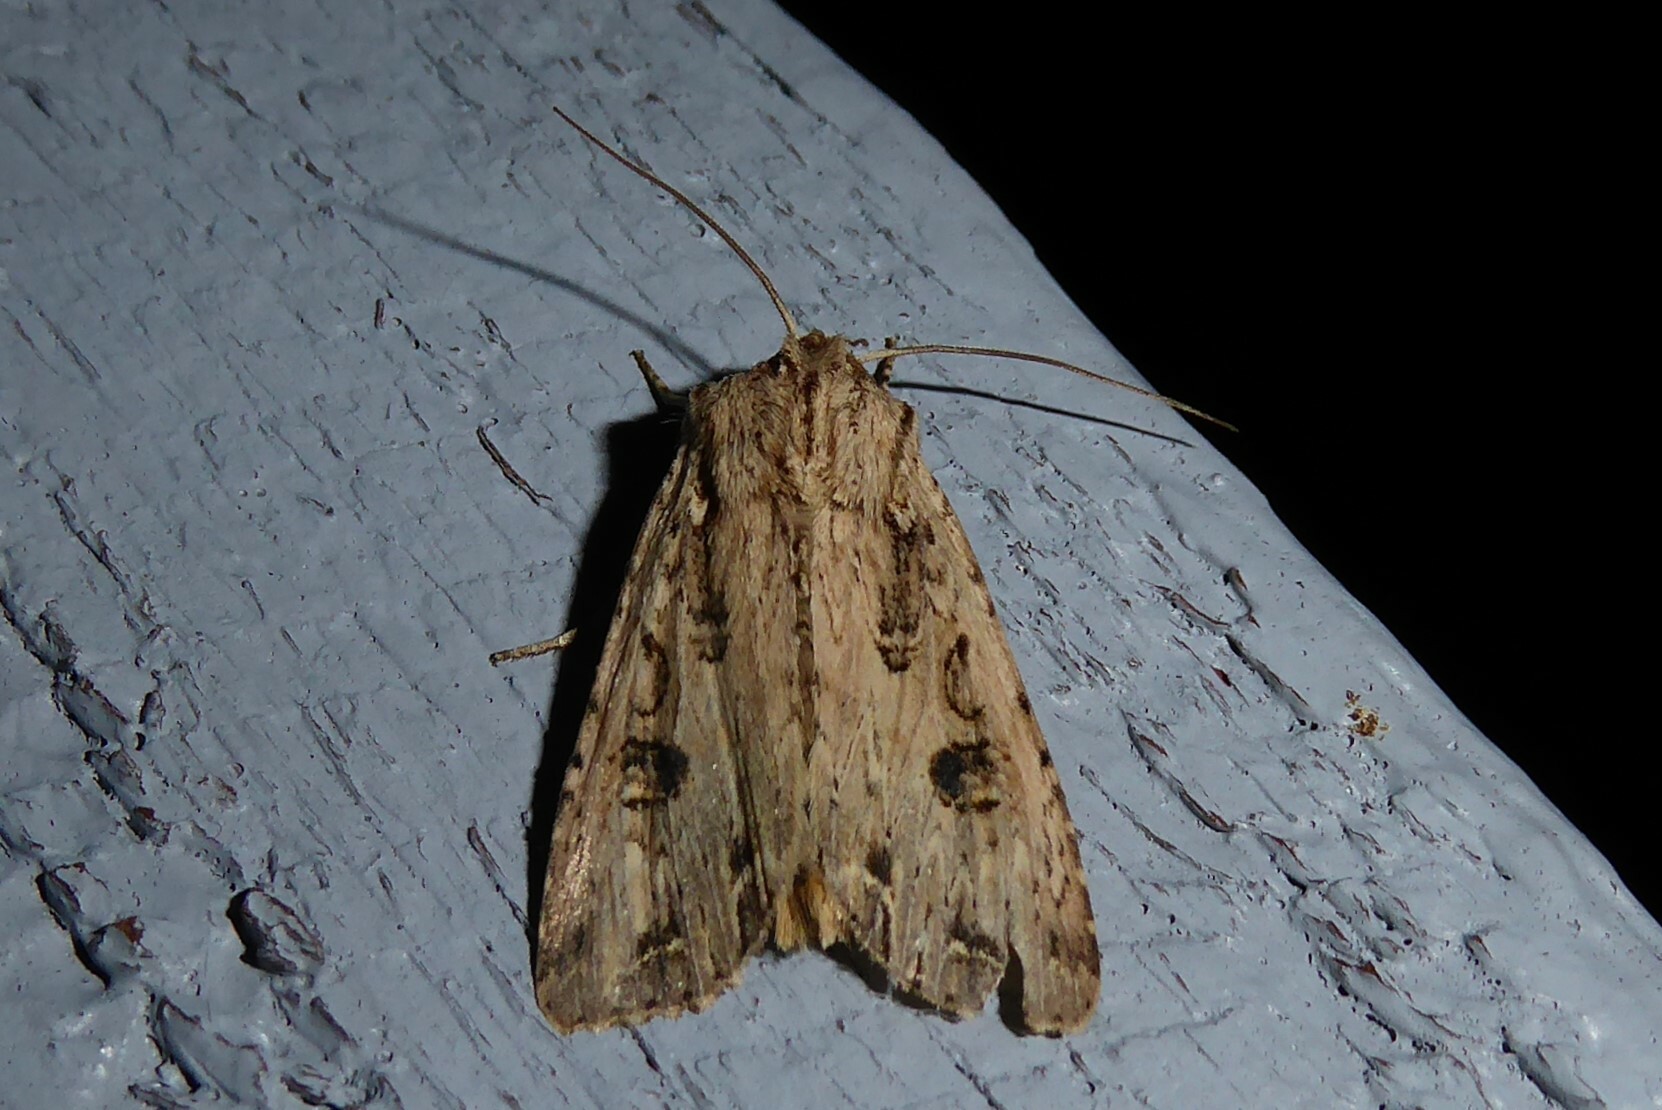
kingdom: Animalia
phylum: Arthropoda
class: Insecta
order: Lepidoptera
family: Noctuidae
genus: Ichneutica
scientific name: Ichneutica lignana
